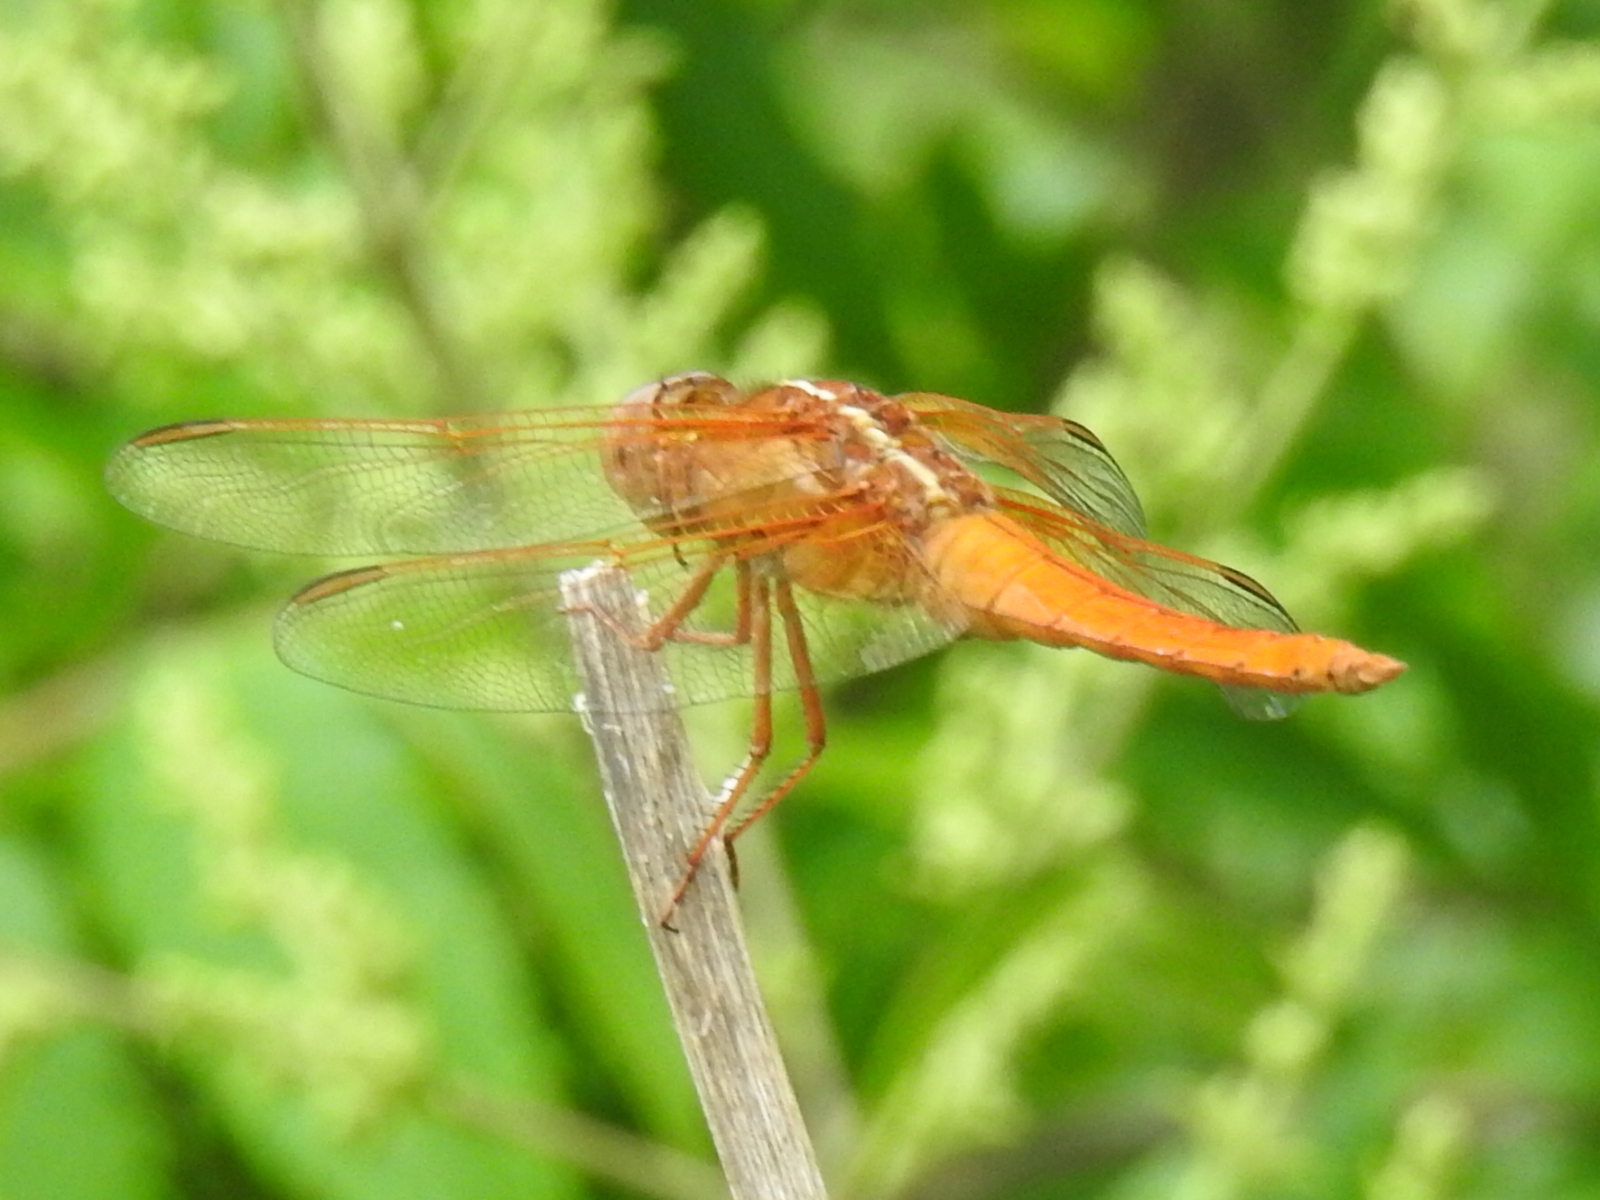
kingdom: Animalia
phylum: Arthropoda
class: Insecta
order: Odonata
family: Libellulidae
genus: Libellula
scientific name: Libellula croceipennis
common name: Neon skimmer
